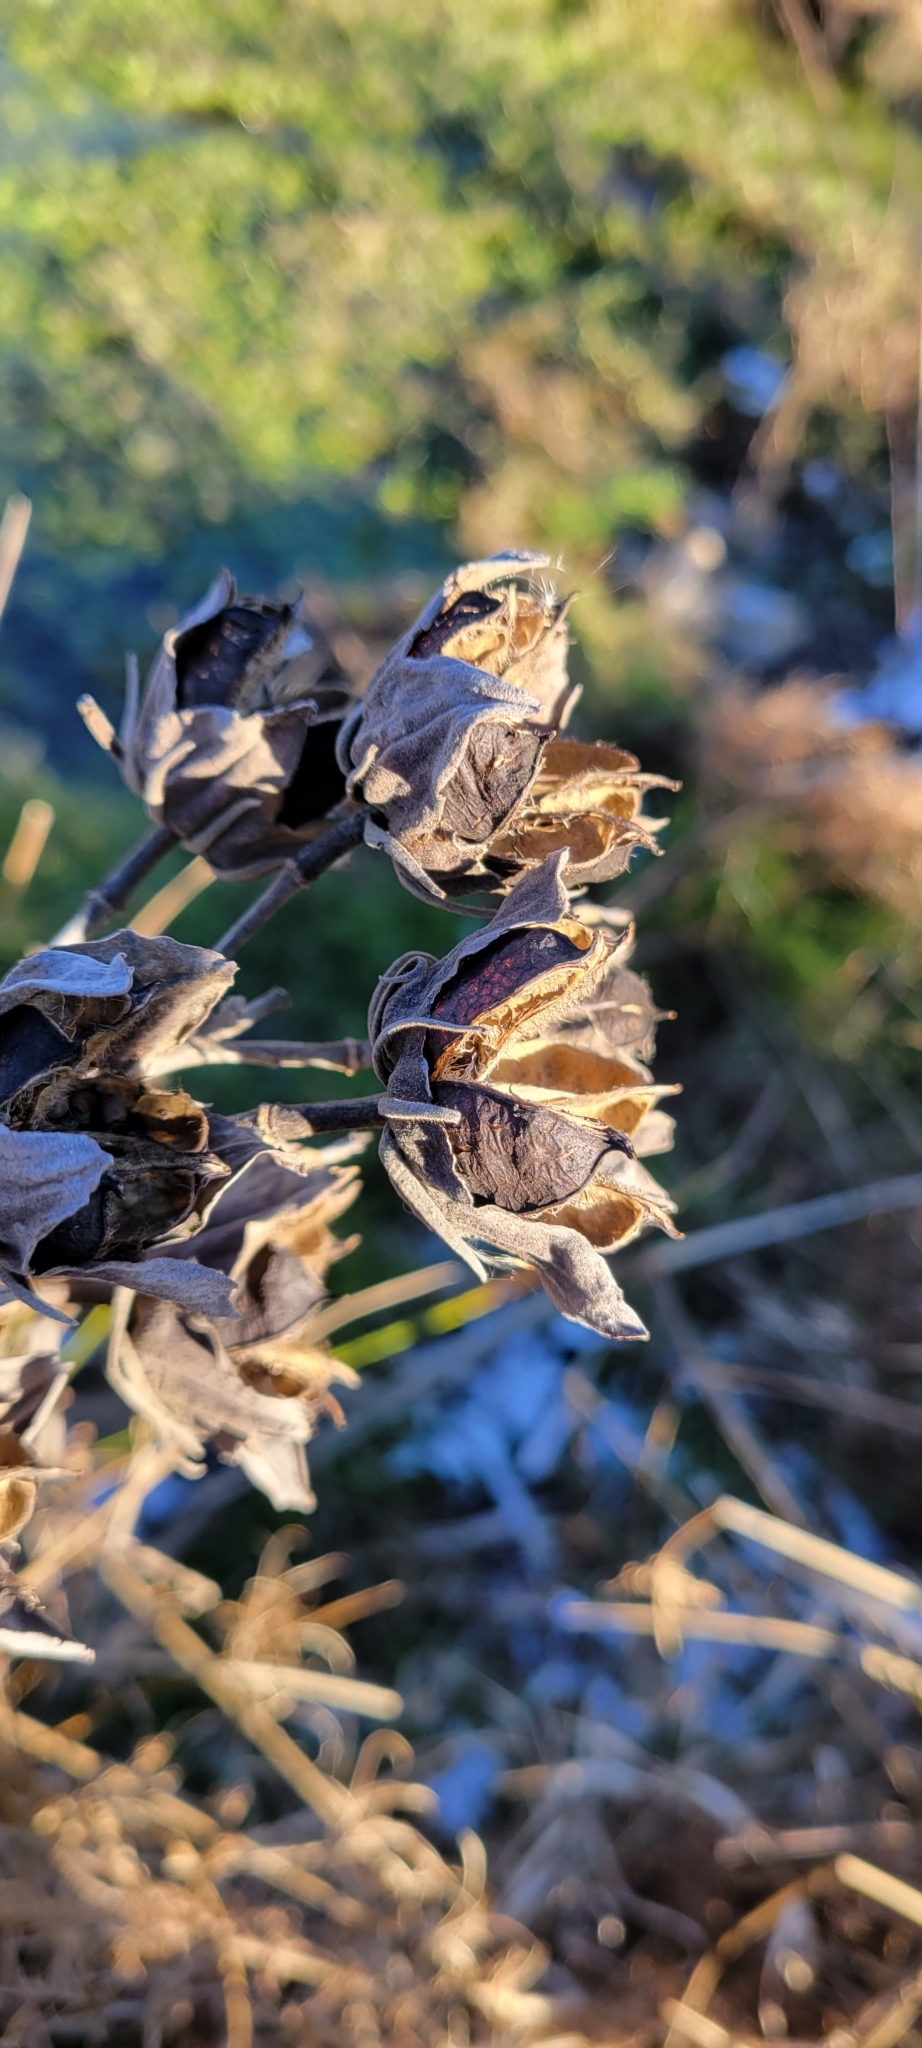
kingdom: Plantae
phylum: Tracheophyta
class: Magnoliopsida
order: Malvales
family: Malvaceae
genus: Hibiscus
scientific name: Hibiscus moscheutos
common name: Common rose-mallow
